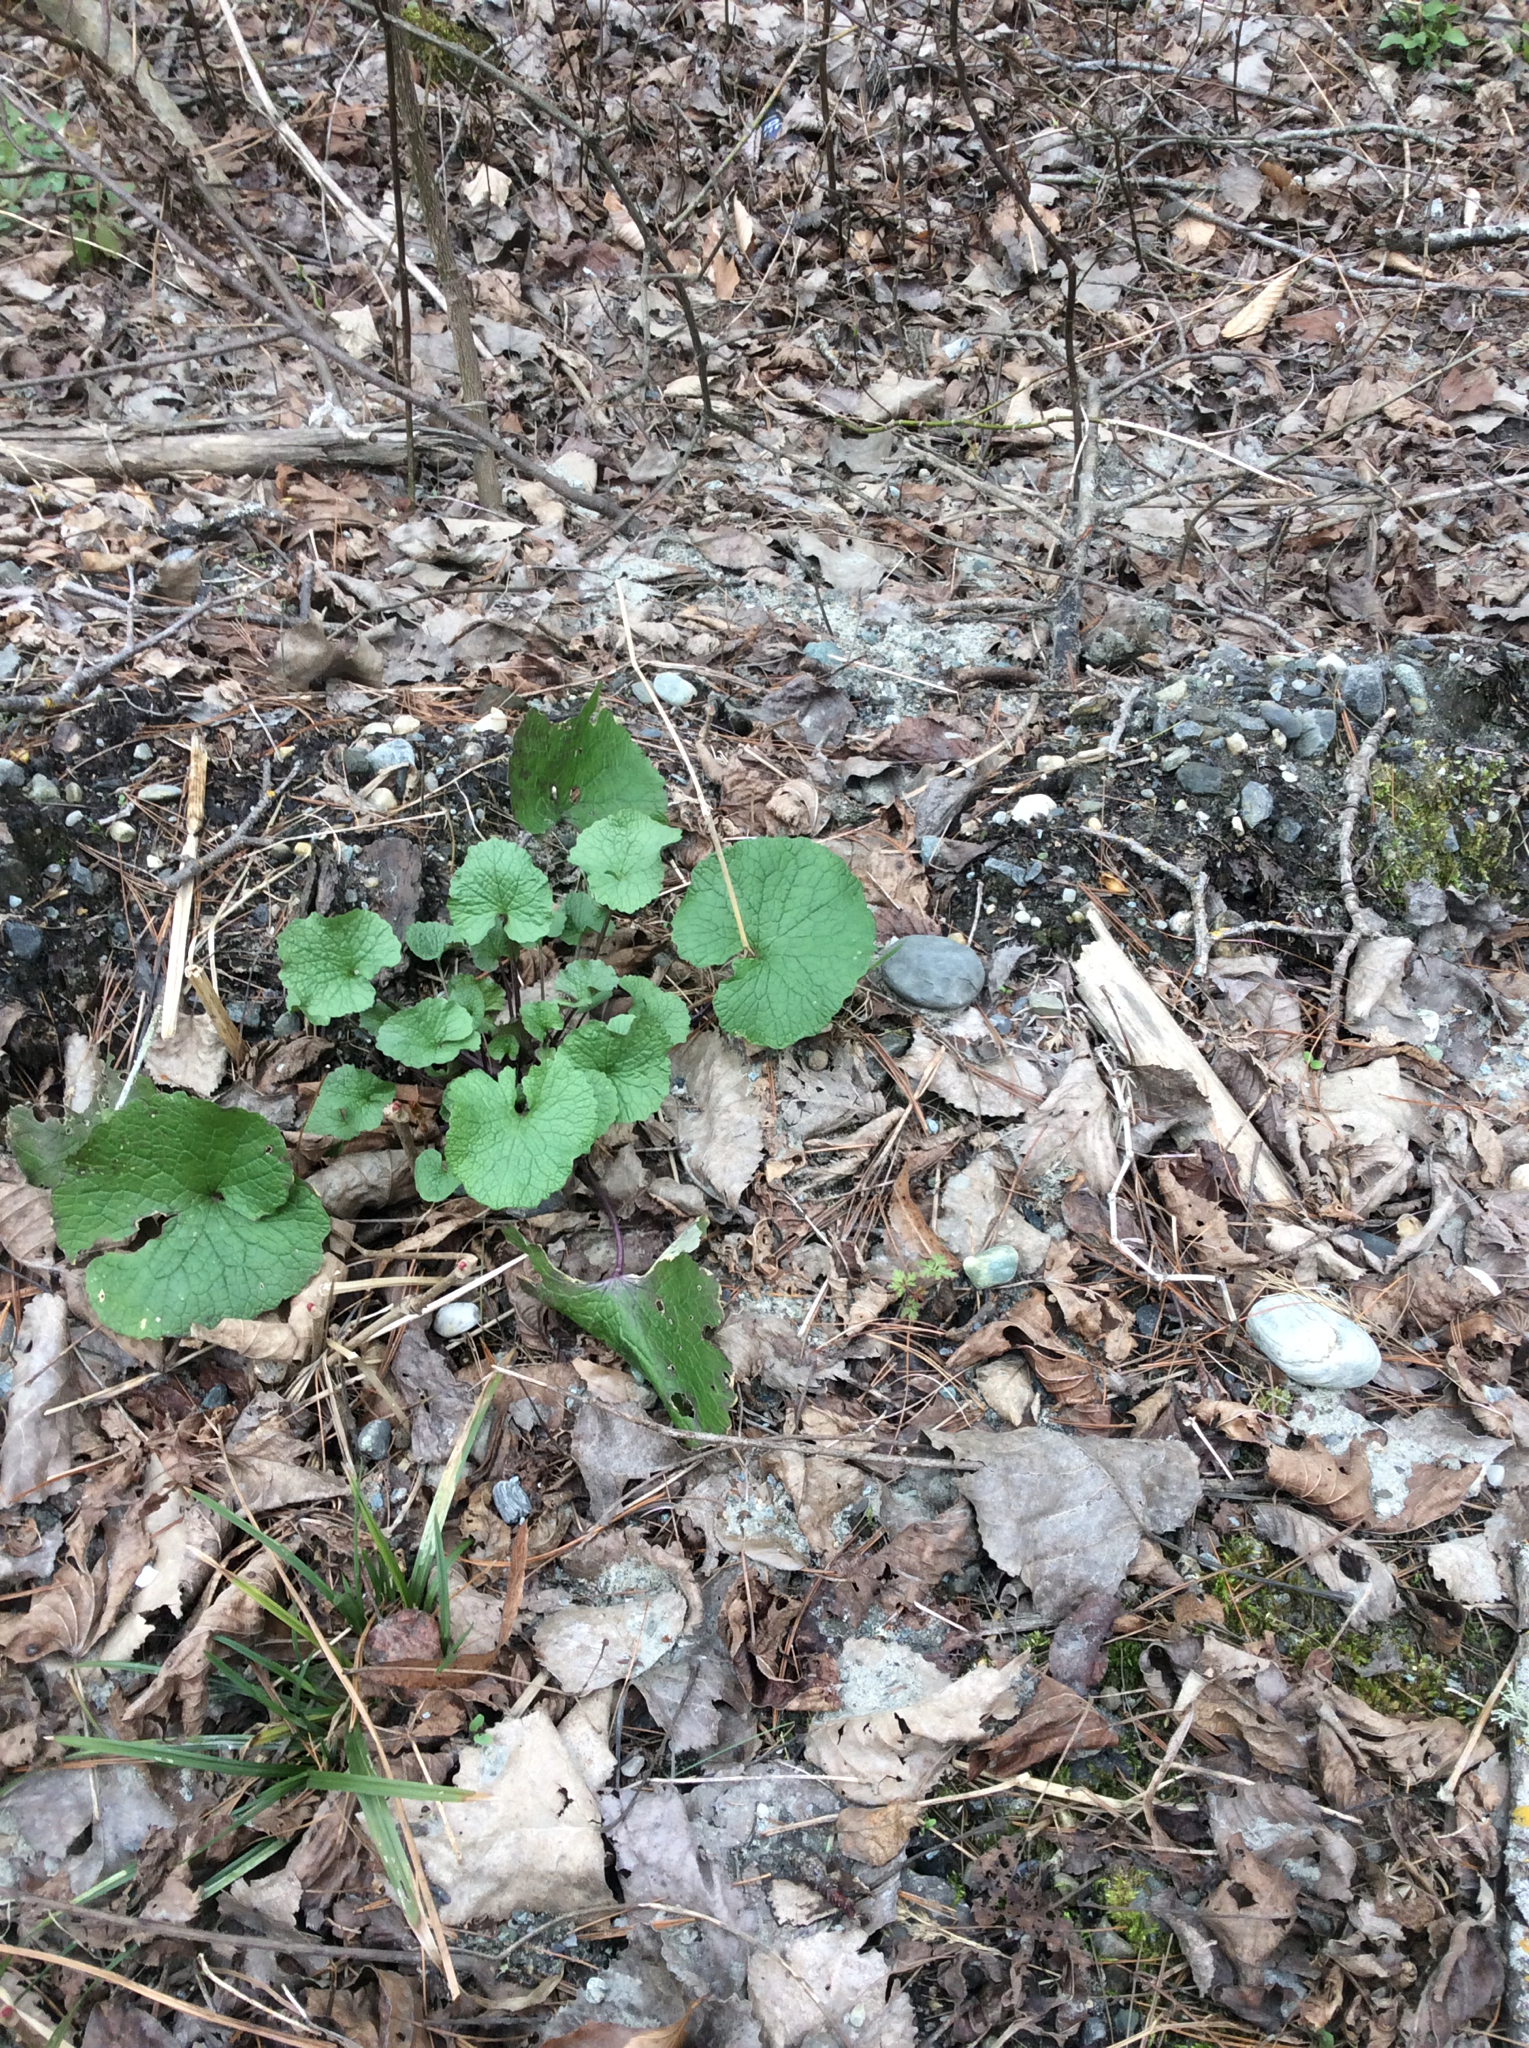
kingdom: Plantae
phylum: Tracheophyta
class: Magnoliopsida
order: Brassicales
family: Brassicaceae
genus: Alliaria
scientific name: Alliaria petiolata
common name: Garlic mustard
